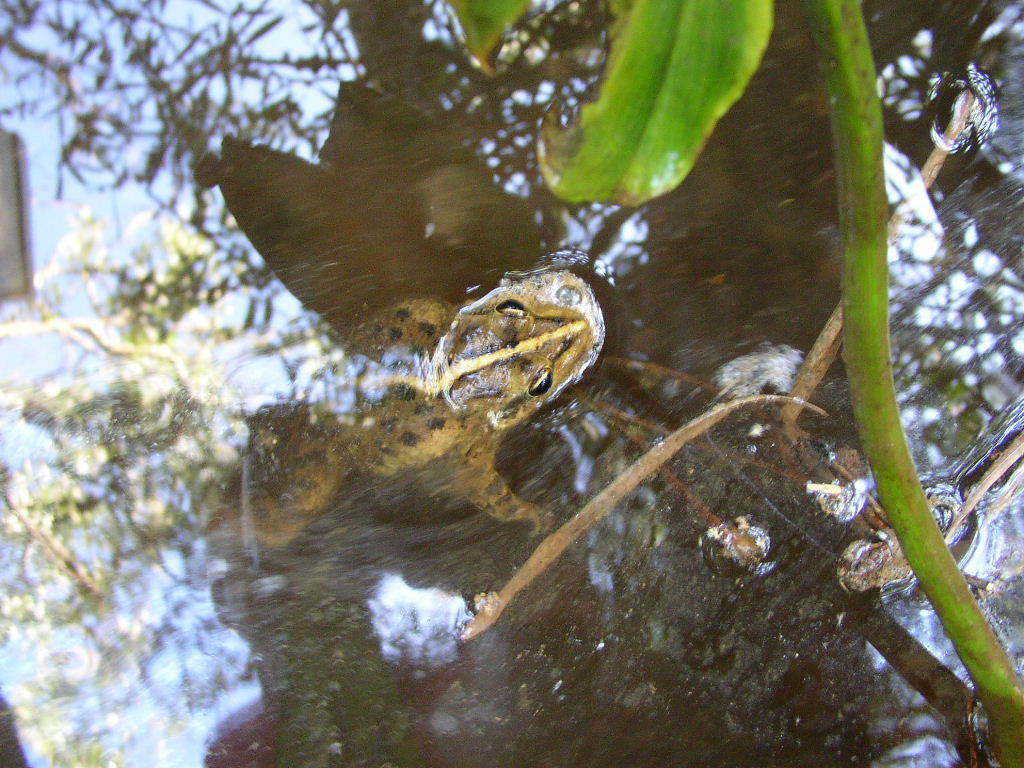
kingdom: Animalia
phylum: Chordata
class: Amphibia
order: Anura
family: Pyxicephalidae
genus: Amietia
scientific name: Amietia fuscigula
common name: Cape rana
